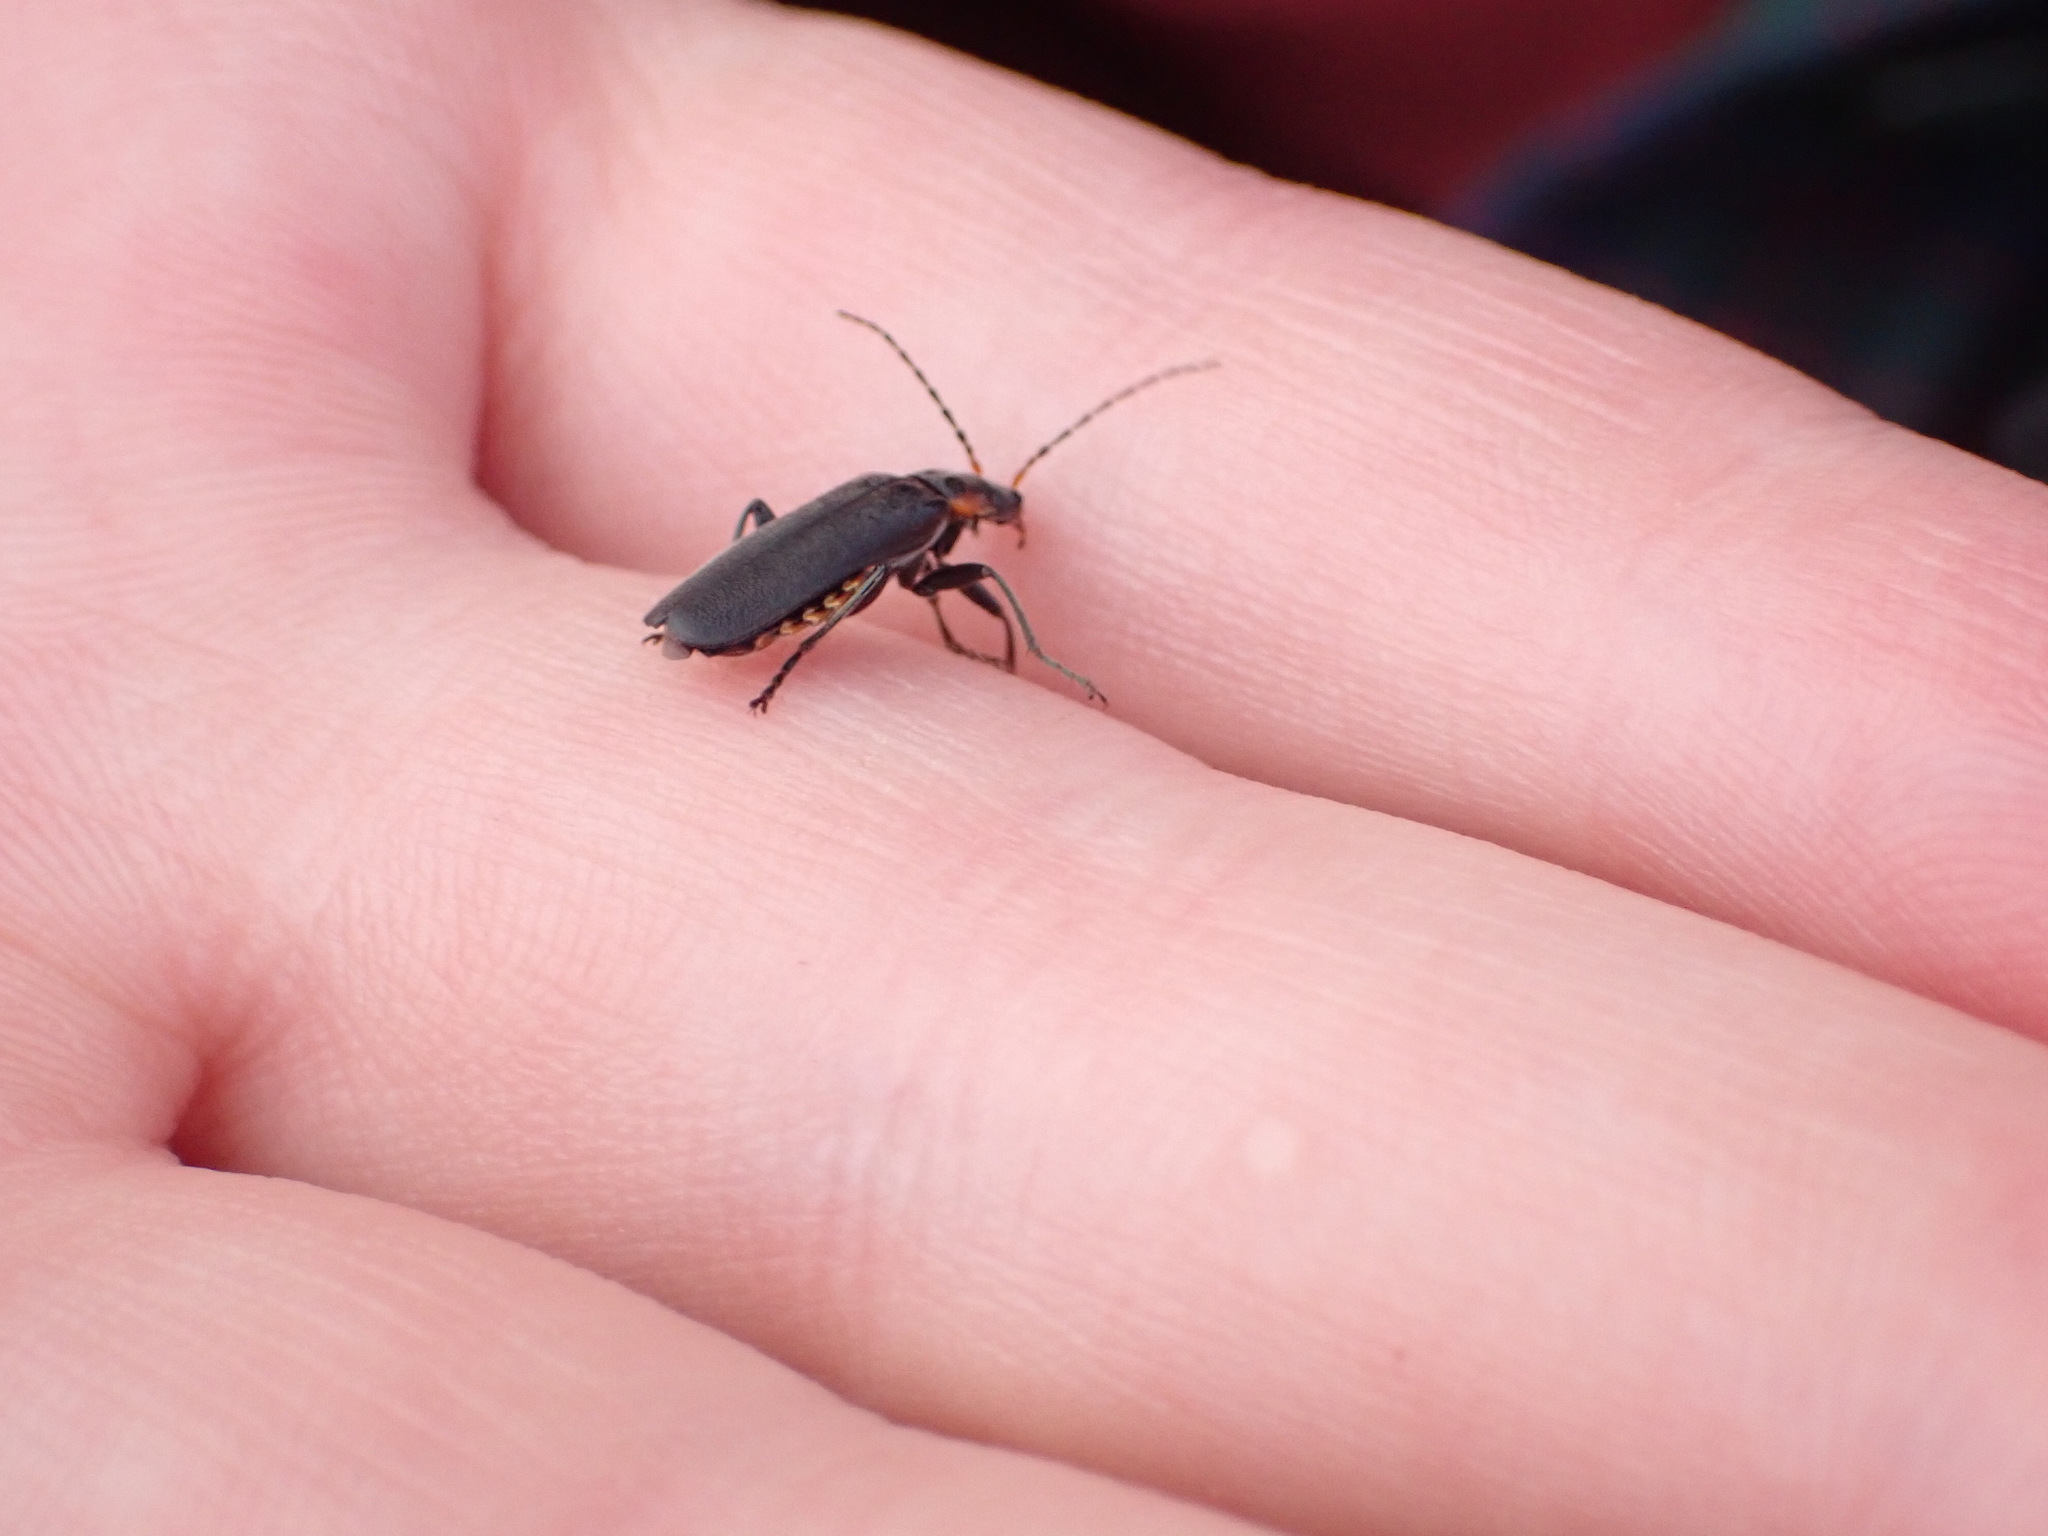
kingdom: Animalia
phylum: Arthropoda
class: Insecta
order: Coleoptera
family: Cantharidae
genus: Cantharis
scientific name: Cantharis fusca
